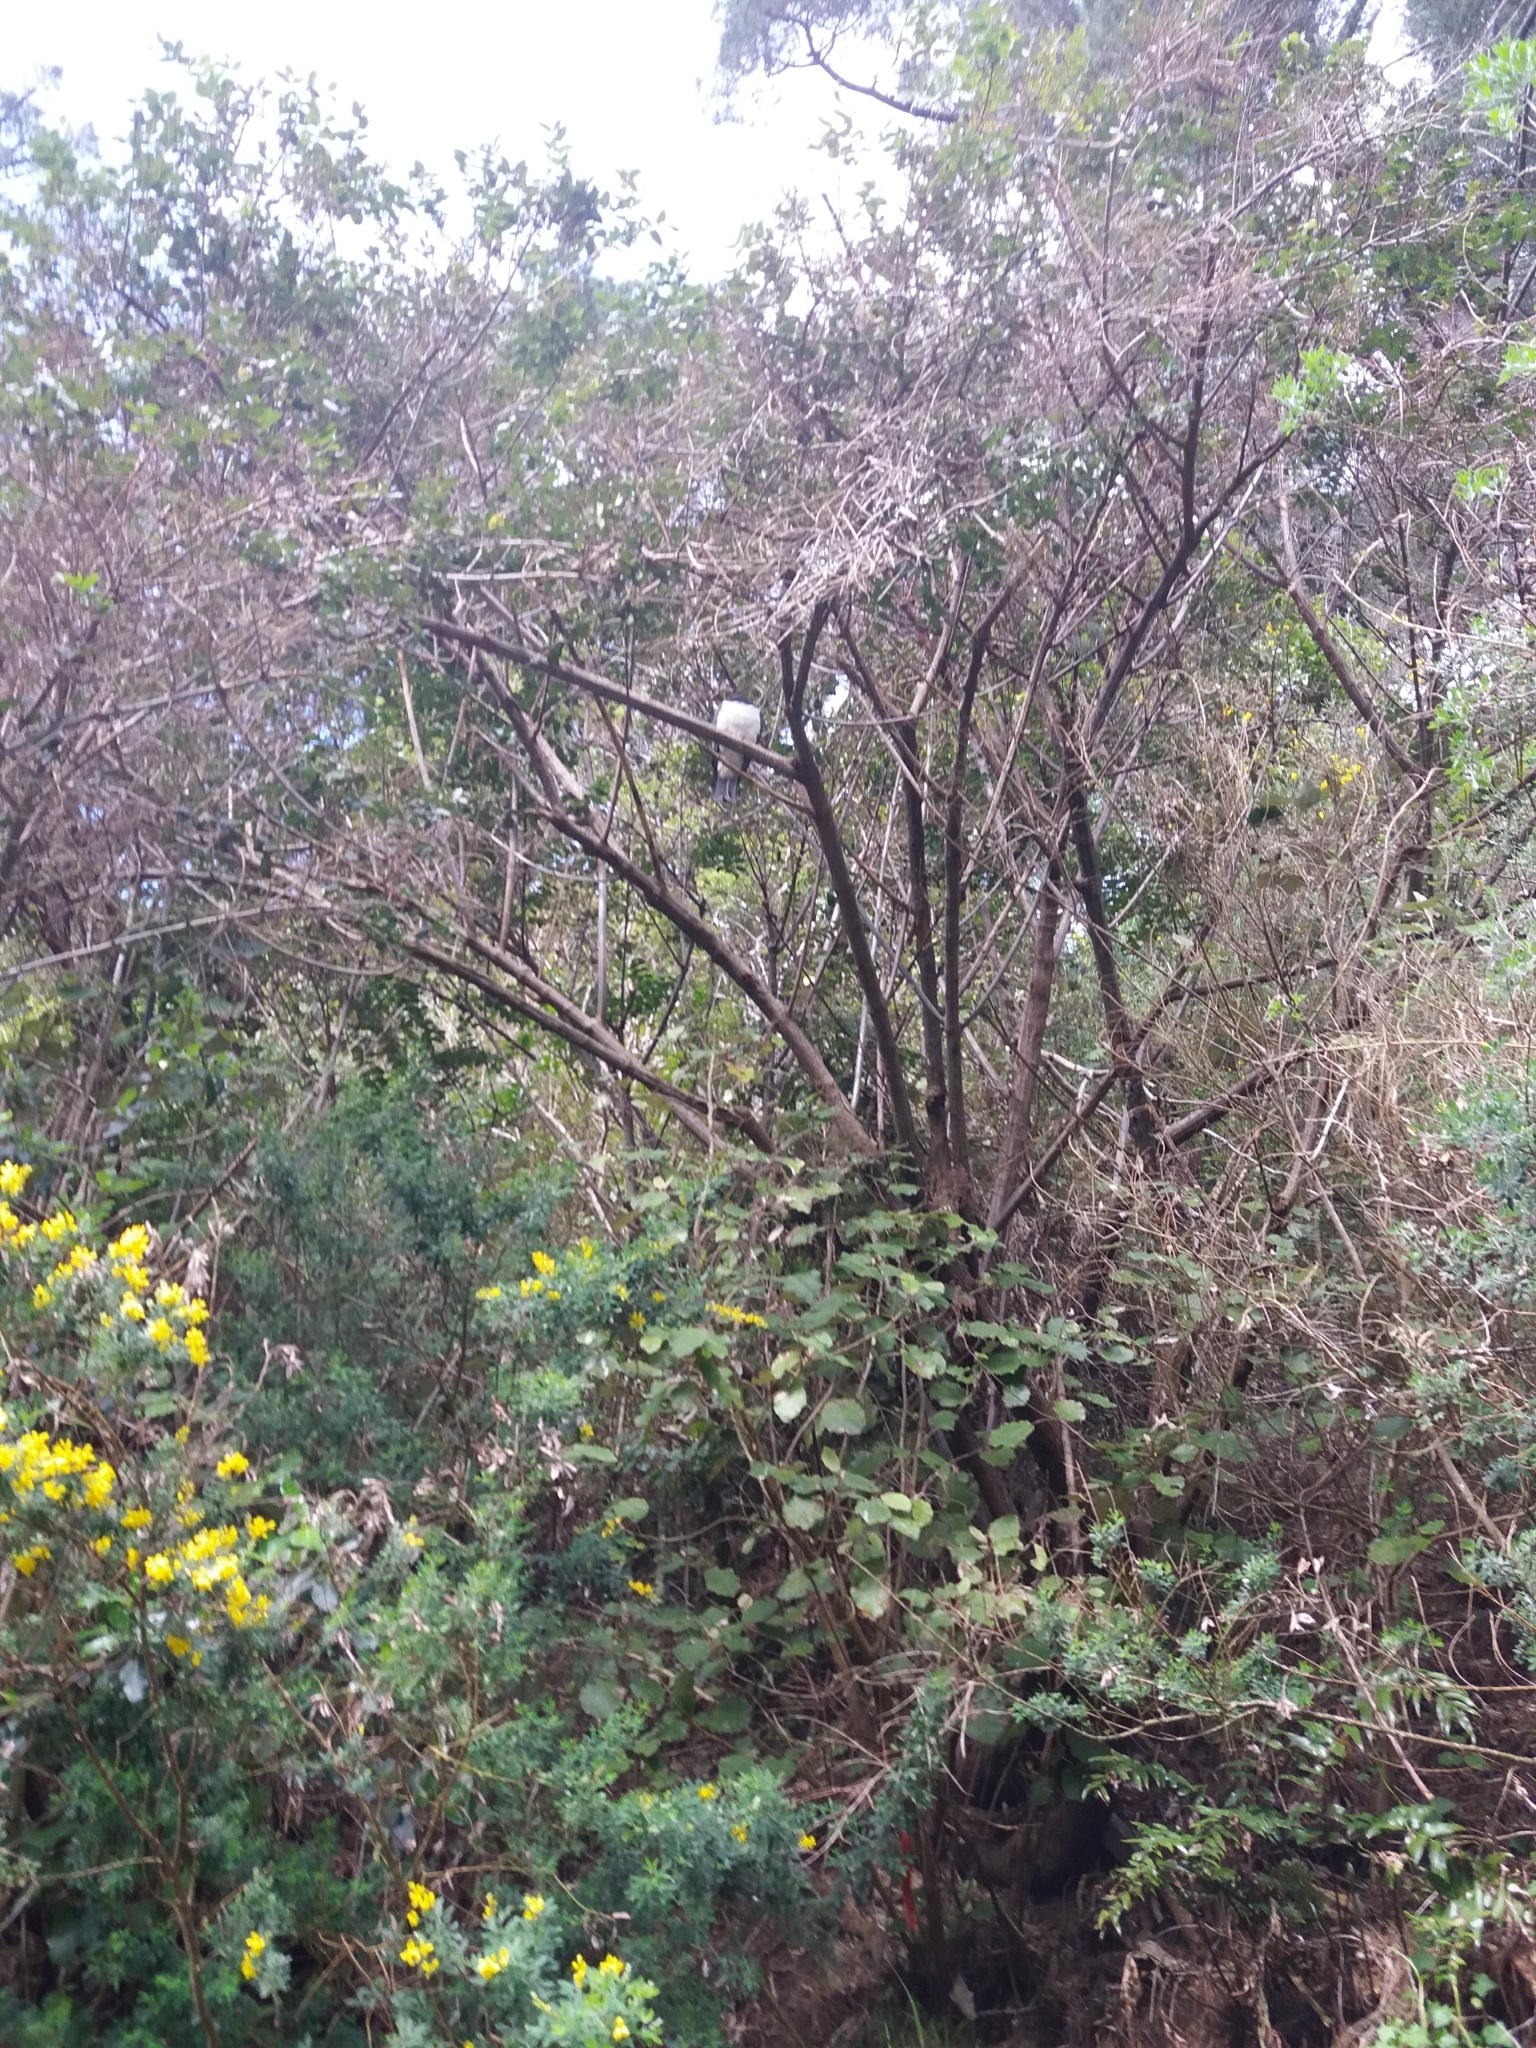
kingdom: Animalia
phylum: Chordata
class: Aves
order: Columbiformes
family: Columbidae
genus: Hemiphaga
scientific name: Hemiphaga novaeseelandiae
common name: New zealand pigeon
